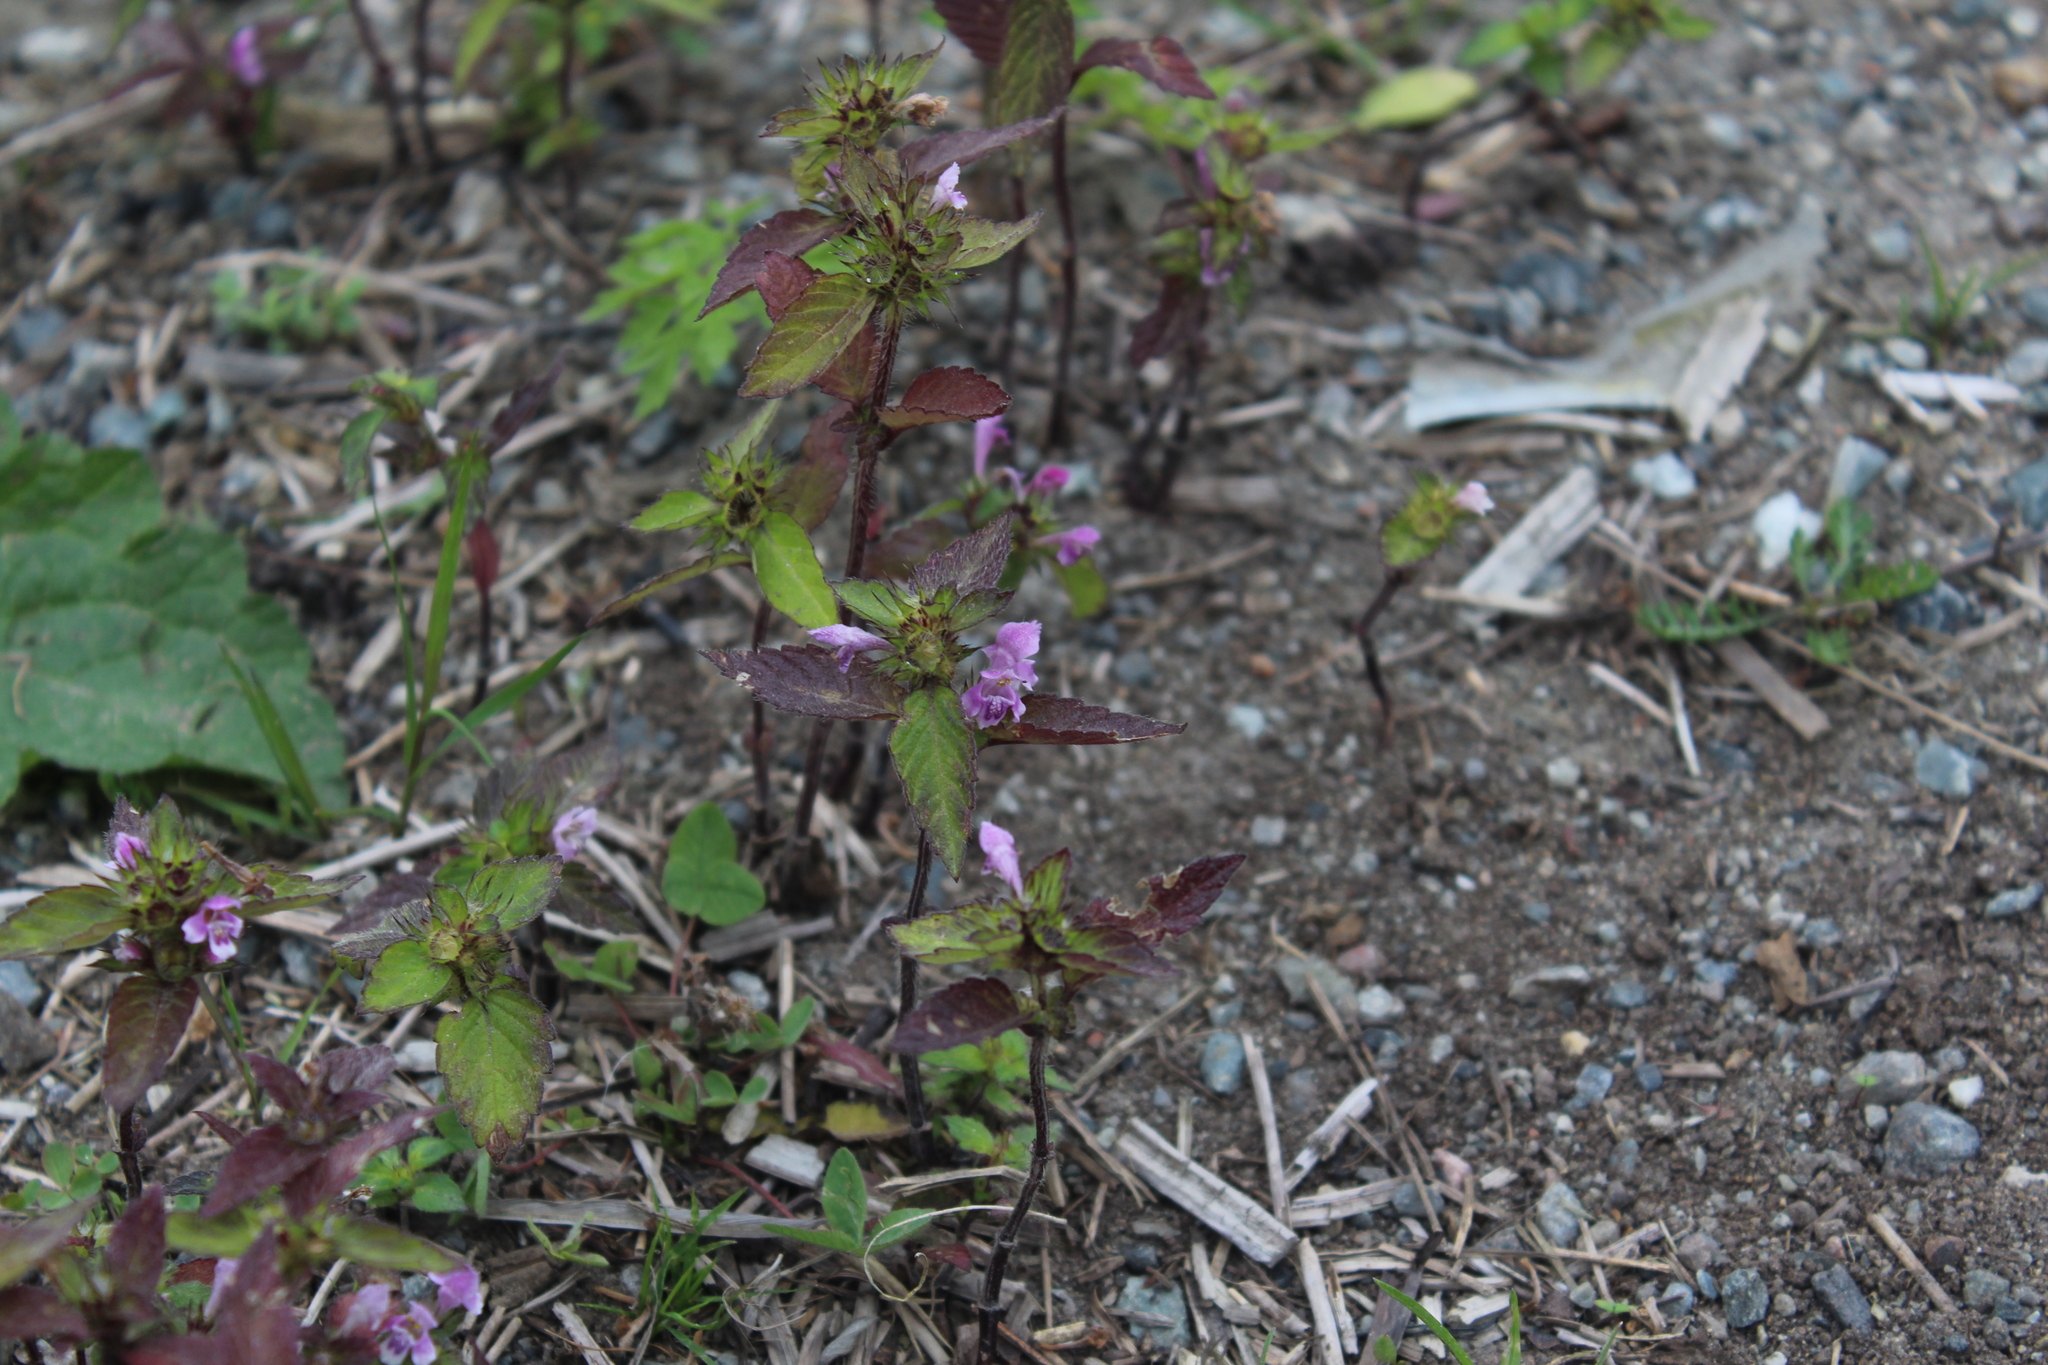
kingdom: Plantae
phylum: Tracheophyta
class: Magnoliopsida
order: Lamiales
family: Lamiaceae
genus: Galeopsis
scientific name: Galeopsis tetrahit
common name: Common hemp-nettle
